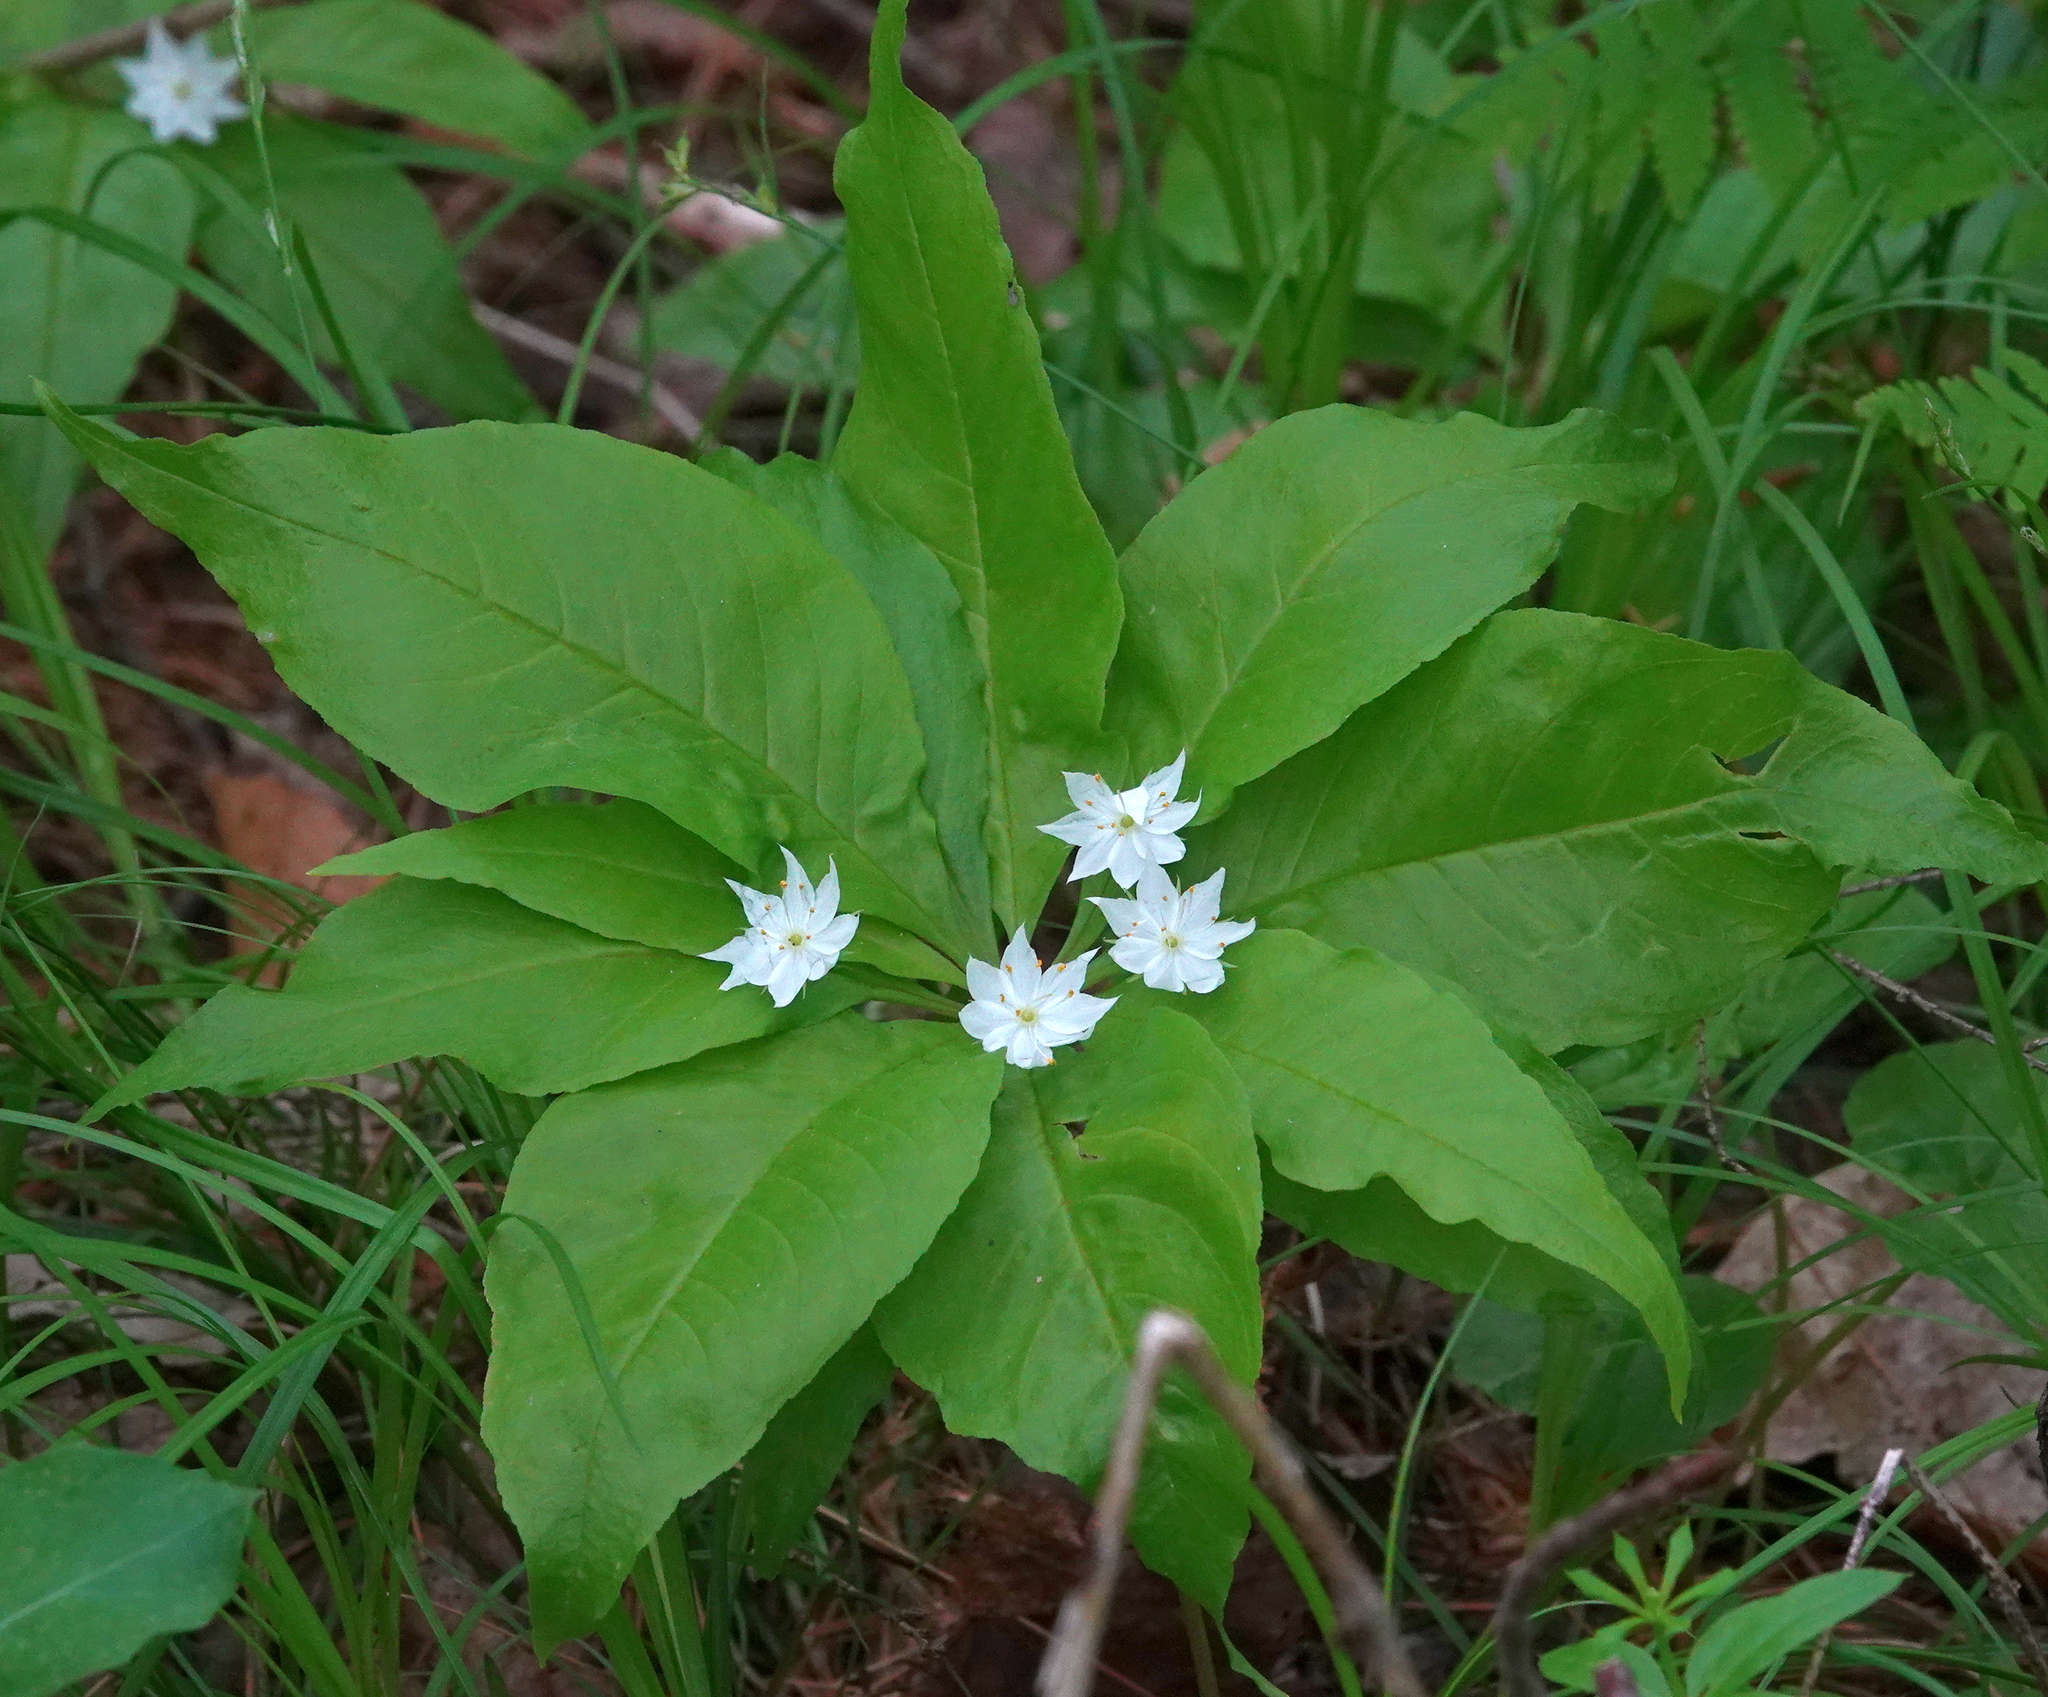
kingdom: Plantae
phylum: Tracheophyta
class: Magnoliopsida
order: Ericales
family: Primulaceae
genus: Lysimachia
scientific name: Lysimachia borealis
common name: American starflower
